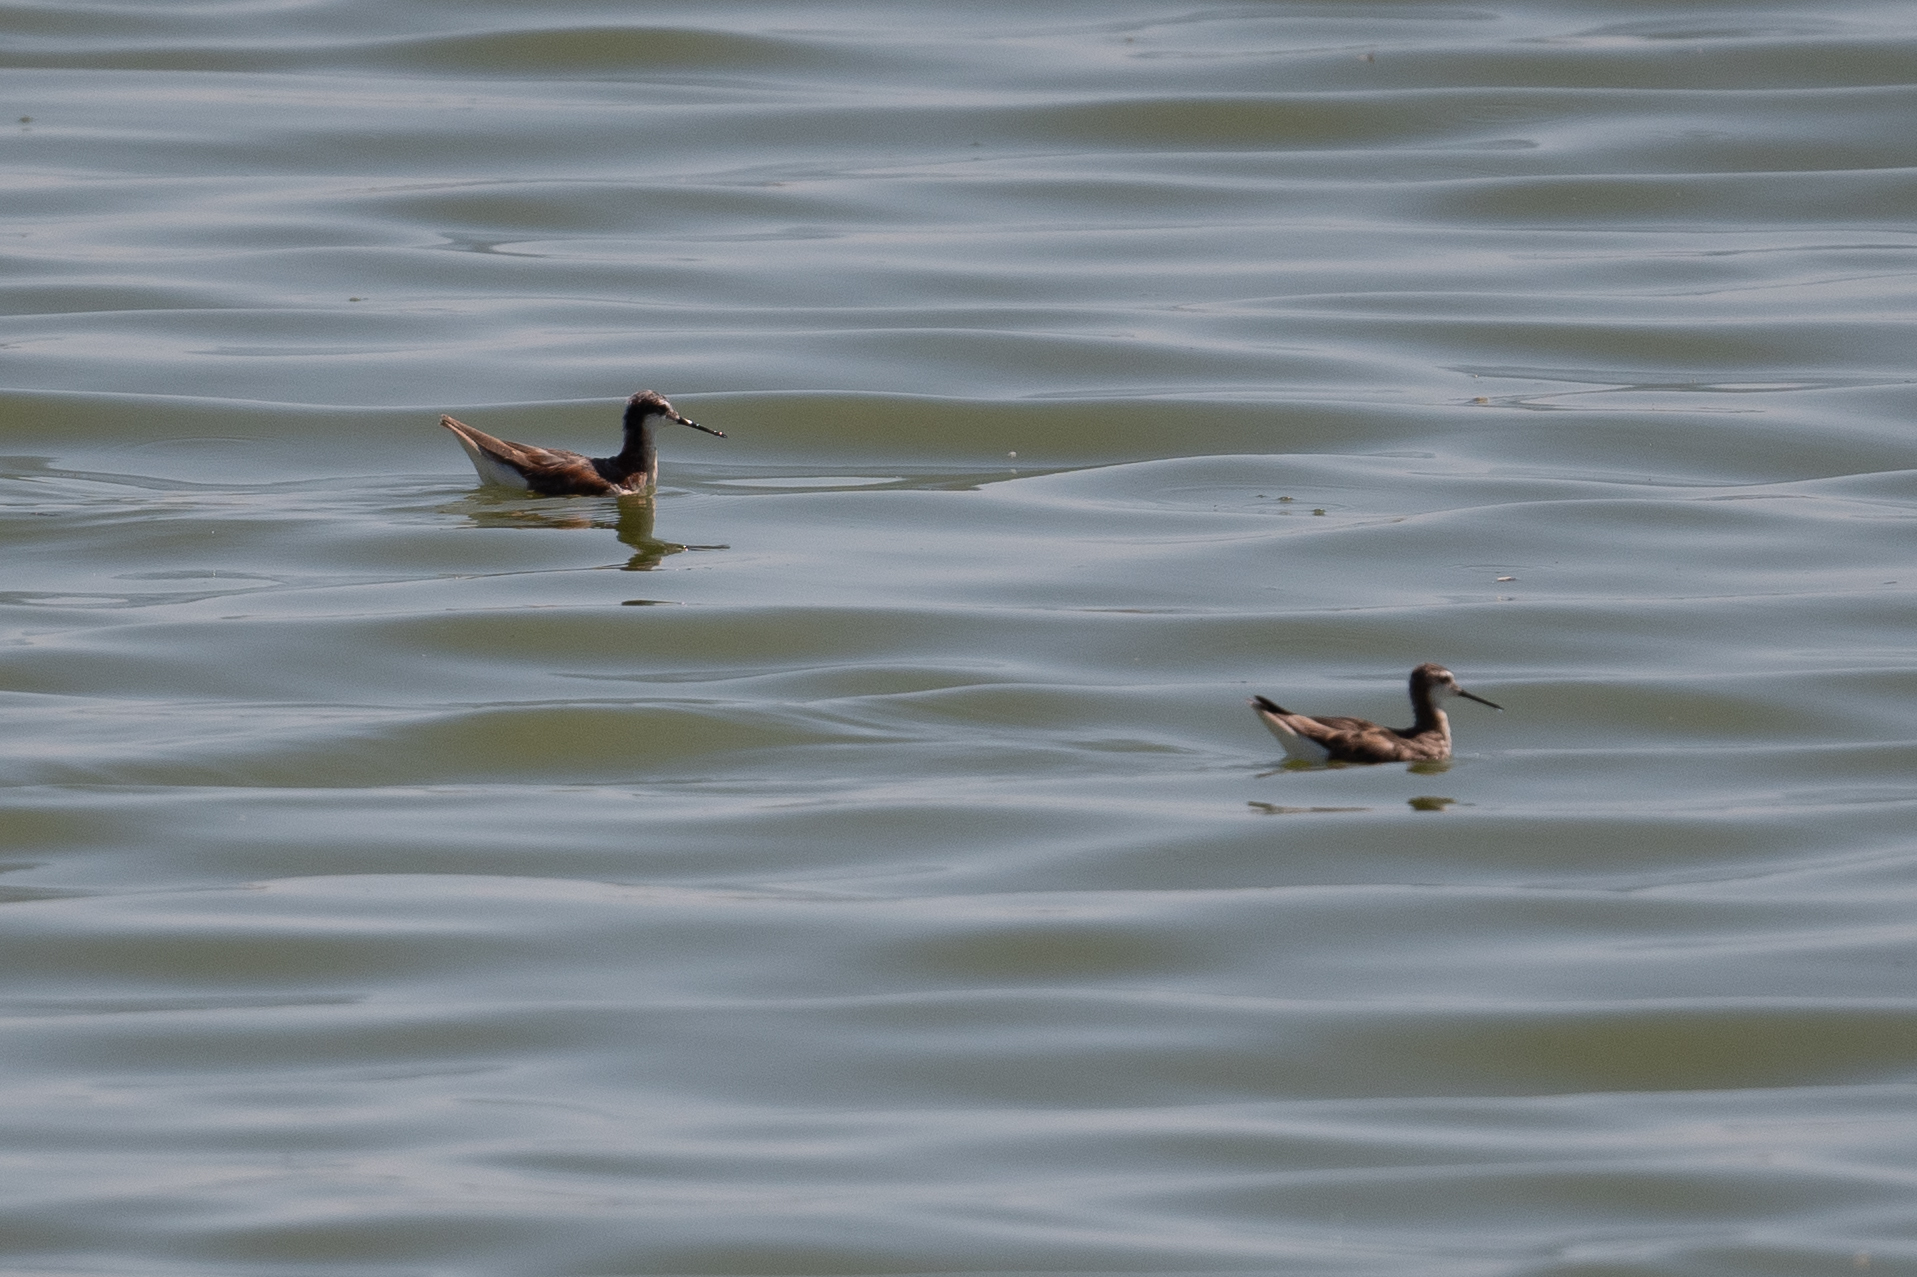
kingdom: Animalia
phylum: Chordata
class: Aves
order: Charadriiformes
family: Scolopacidae
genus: Phalaropus
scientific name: Phalaropus tricolor
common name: Wilson's phalarope
